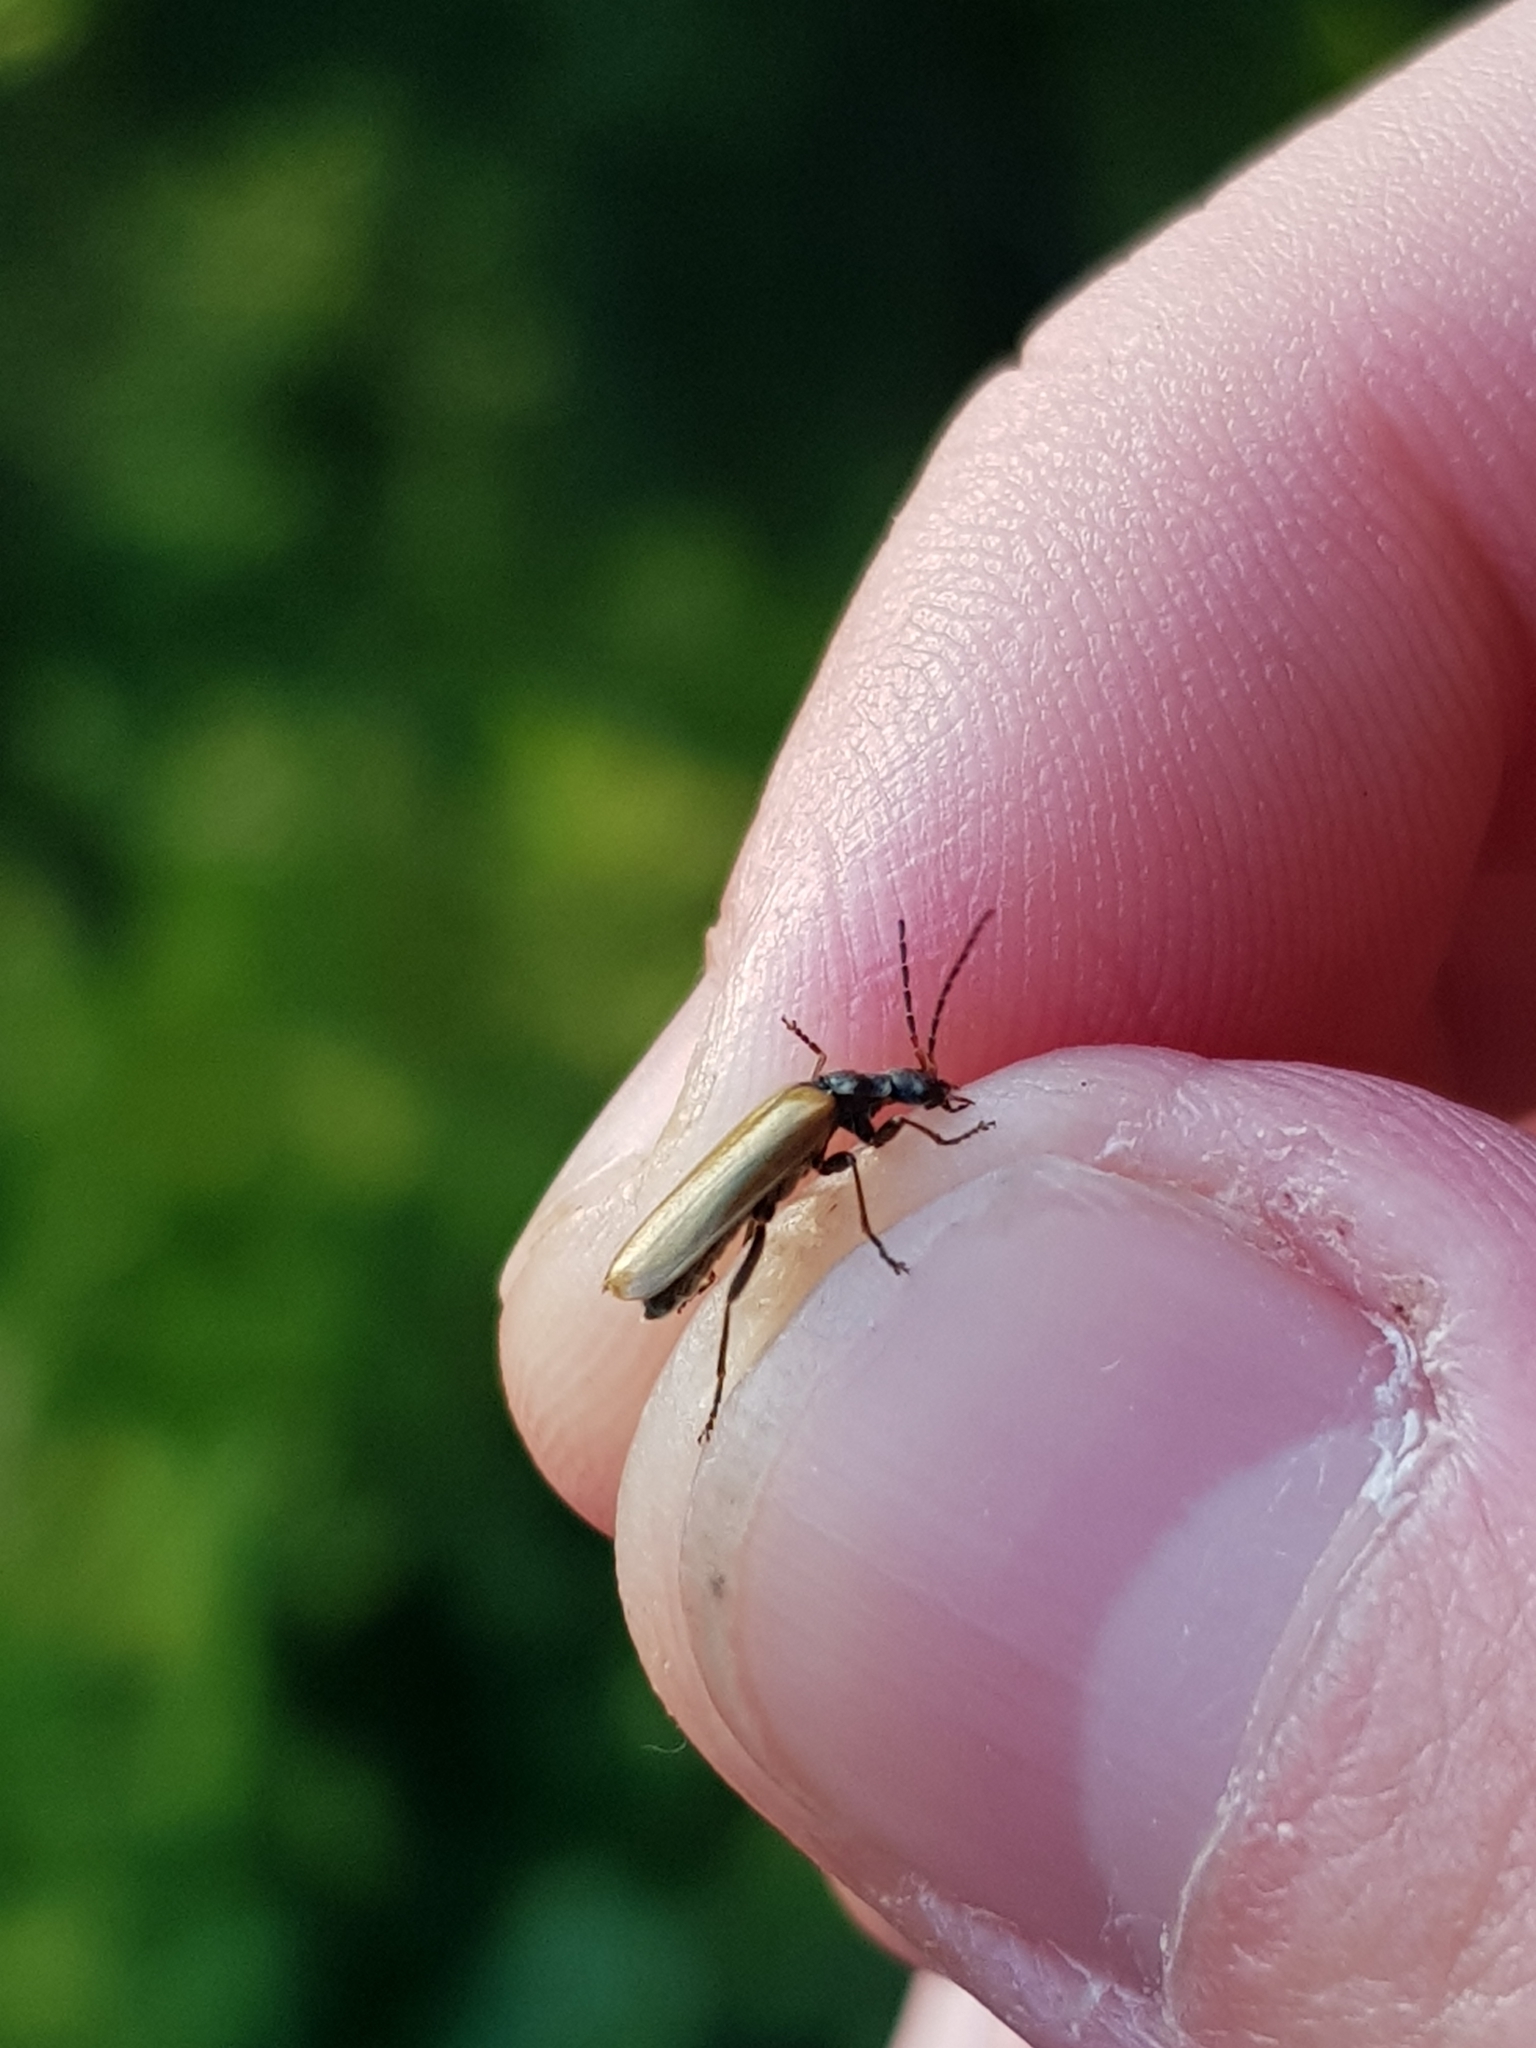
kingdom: Animalia
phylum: Arthropoda
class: Insecta
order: Coleoptera
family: Cantharidae
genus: Rhagonycha
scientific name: Rhagonycha nigripes
